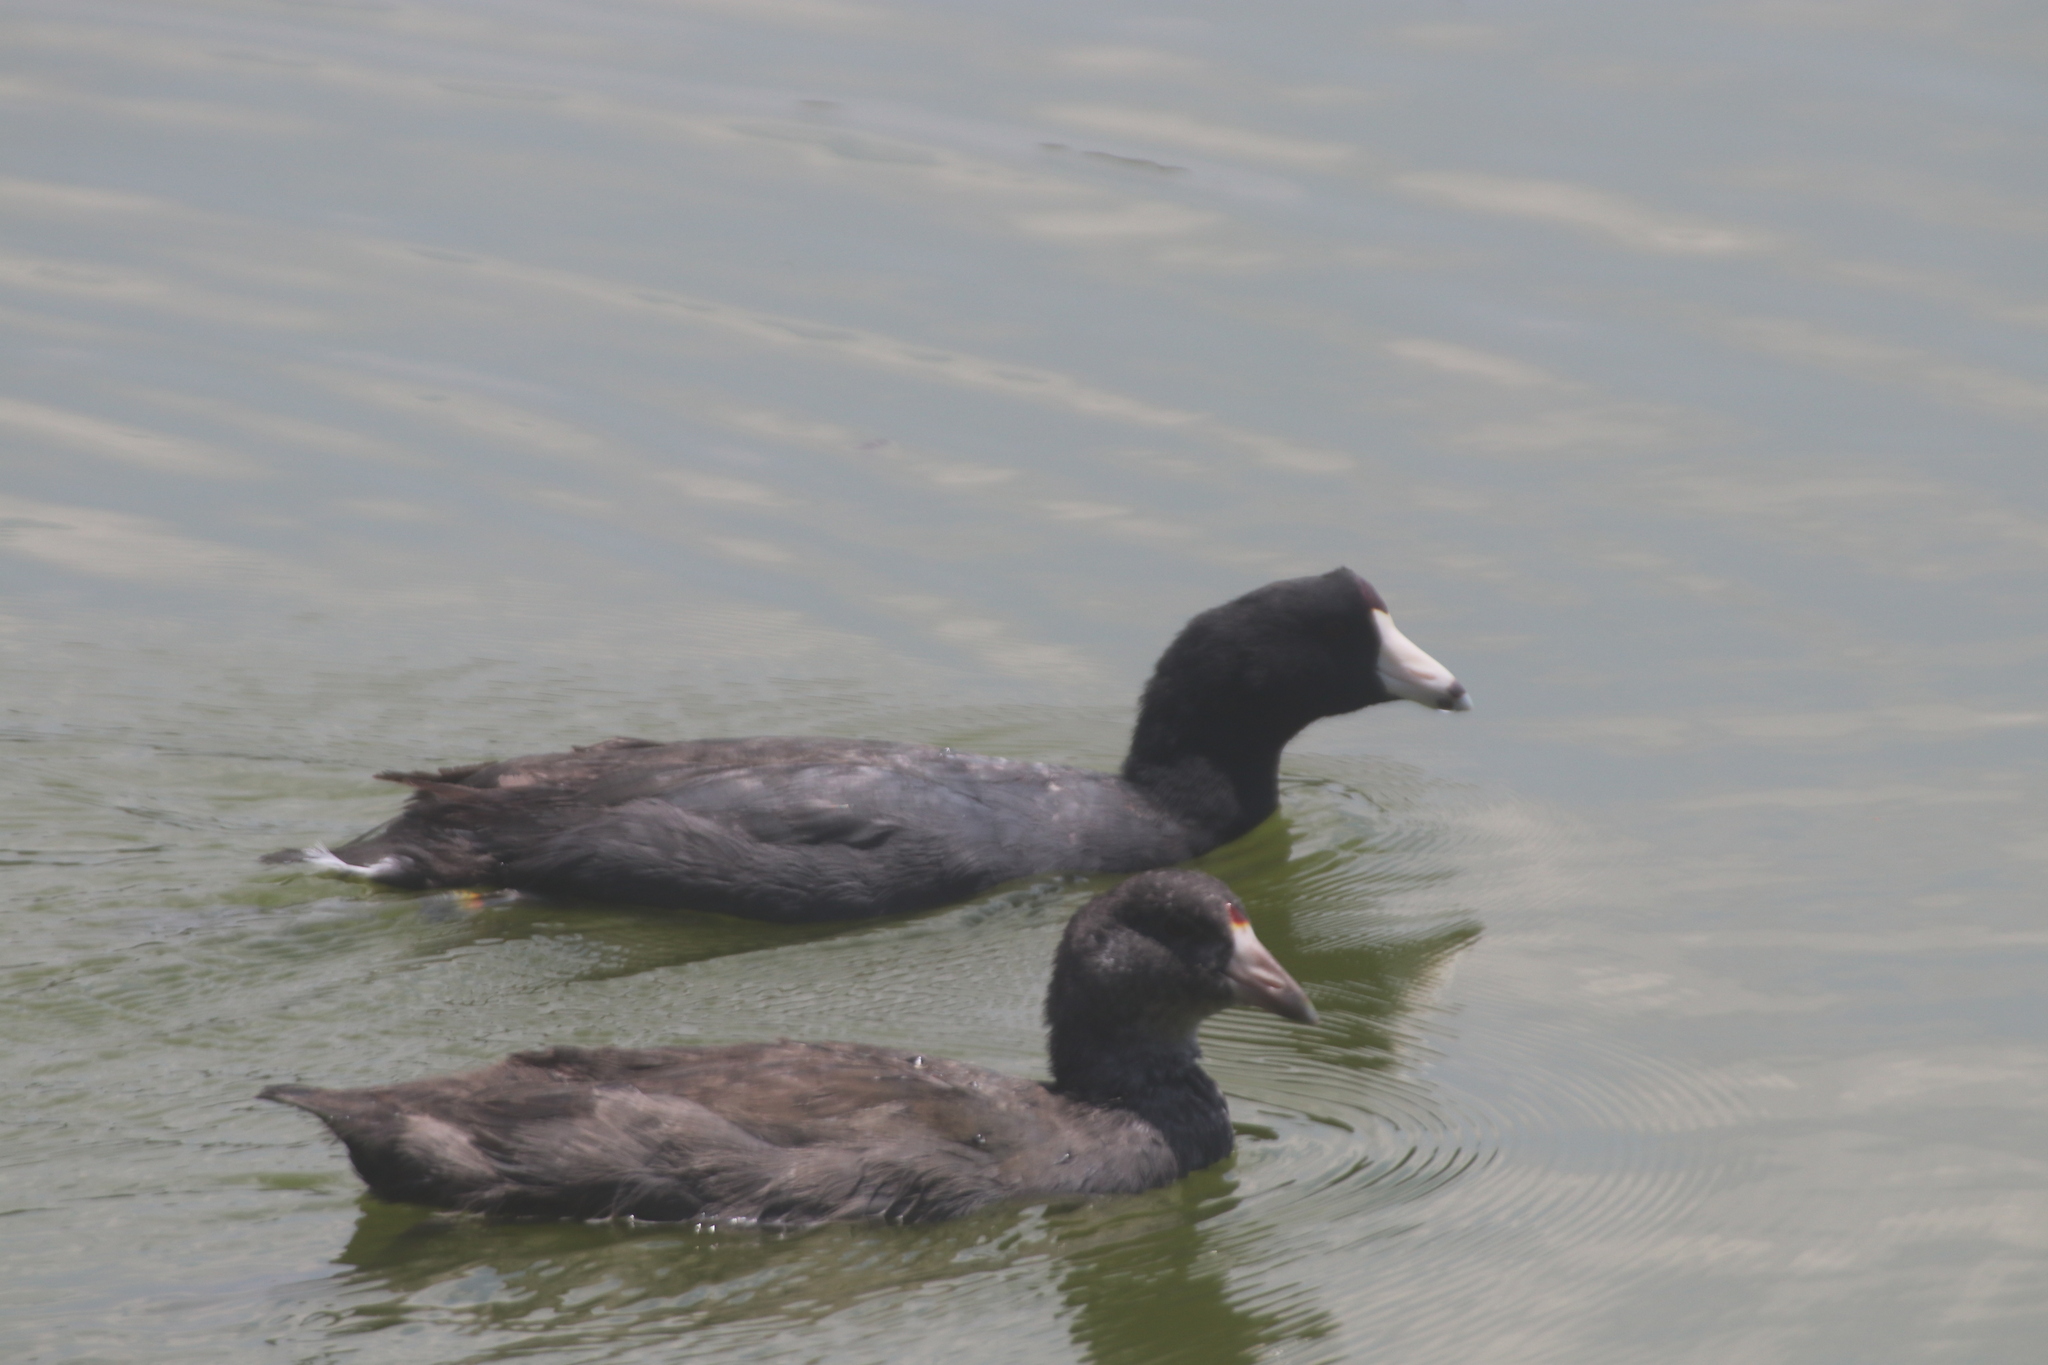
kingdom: Animalia
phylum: Chordata
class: Aves
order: Gruiformes
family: Rallidae
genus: Fulica
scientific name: Fulica americana
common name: American coot
